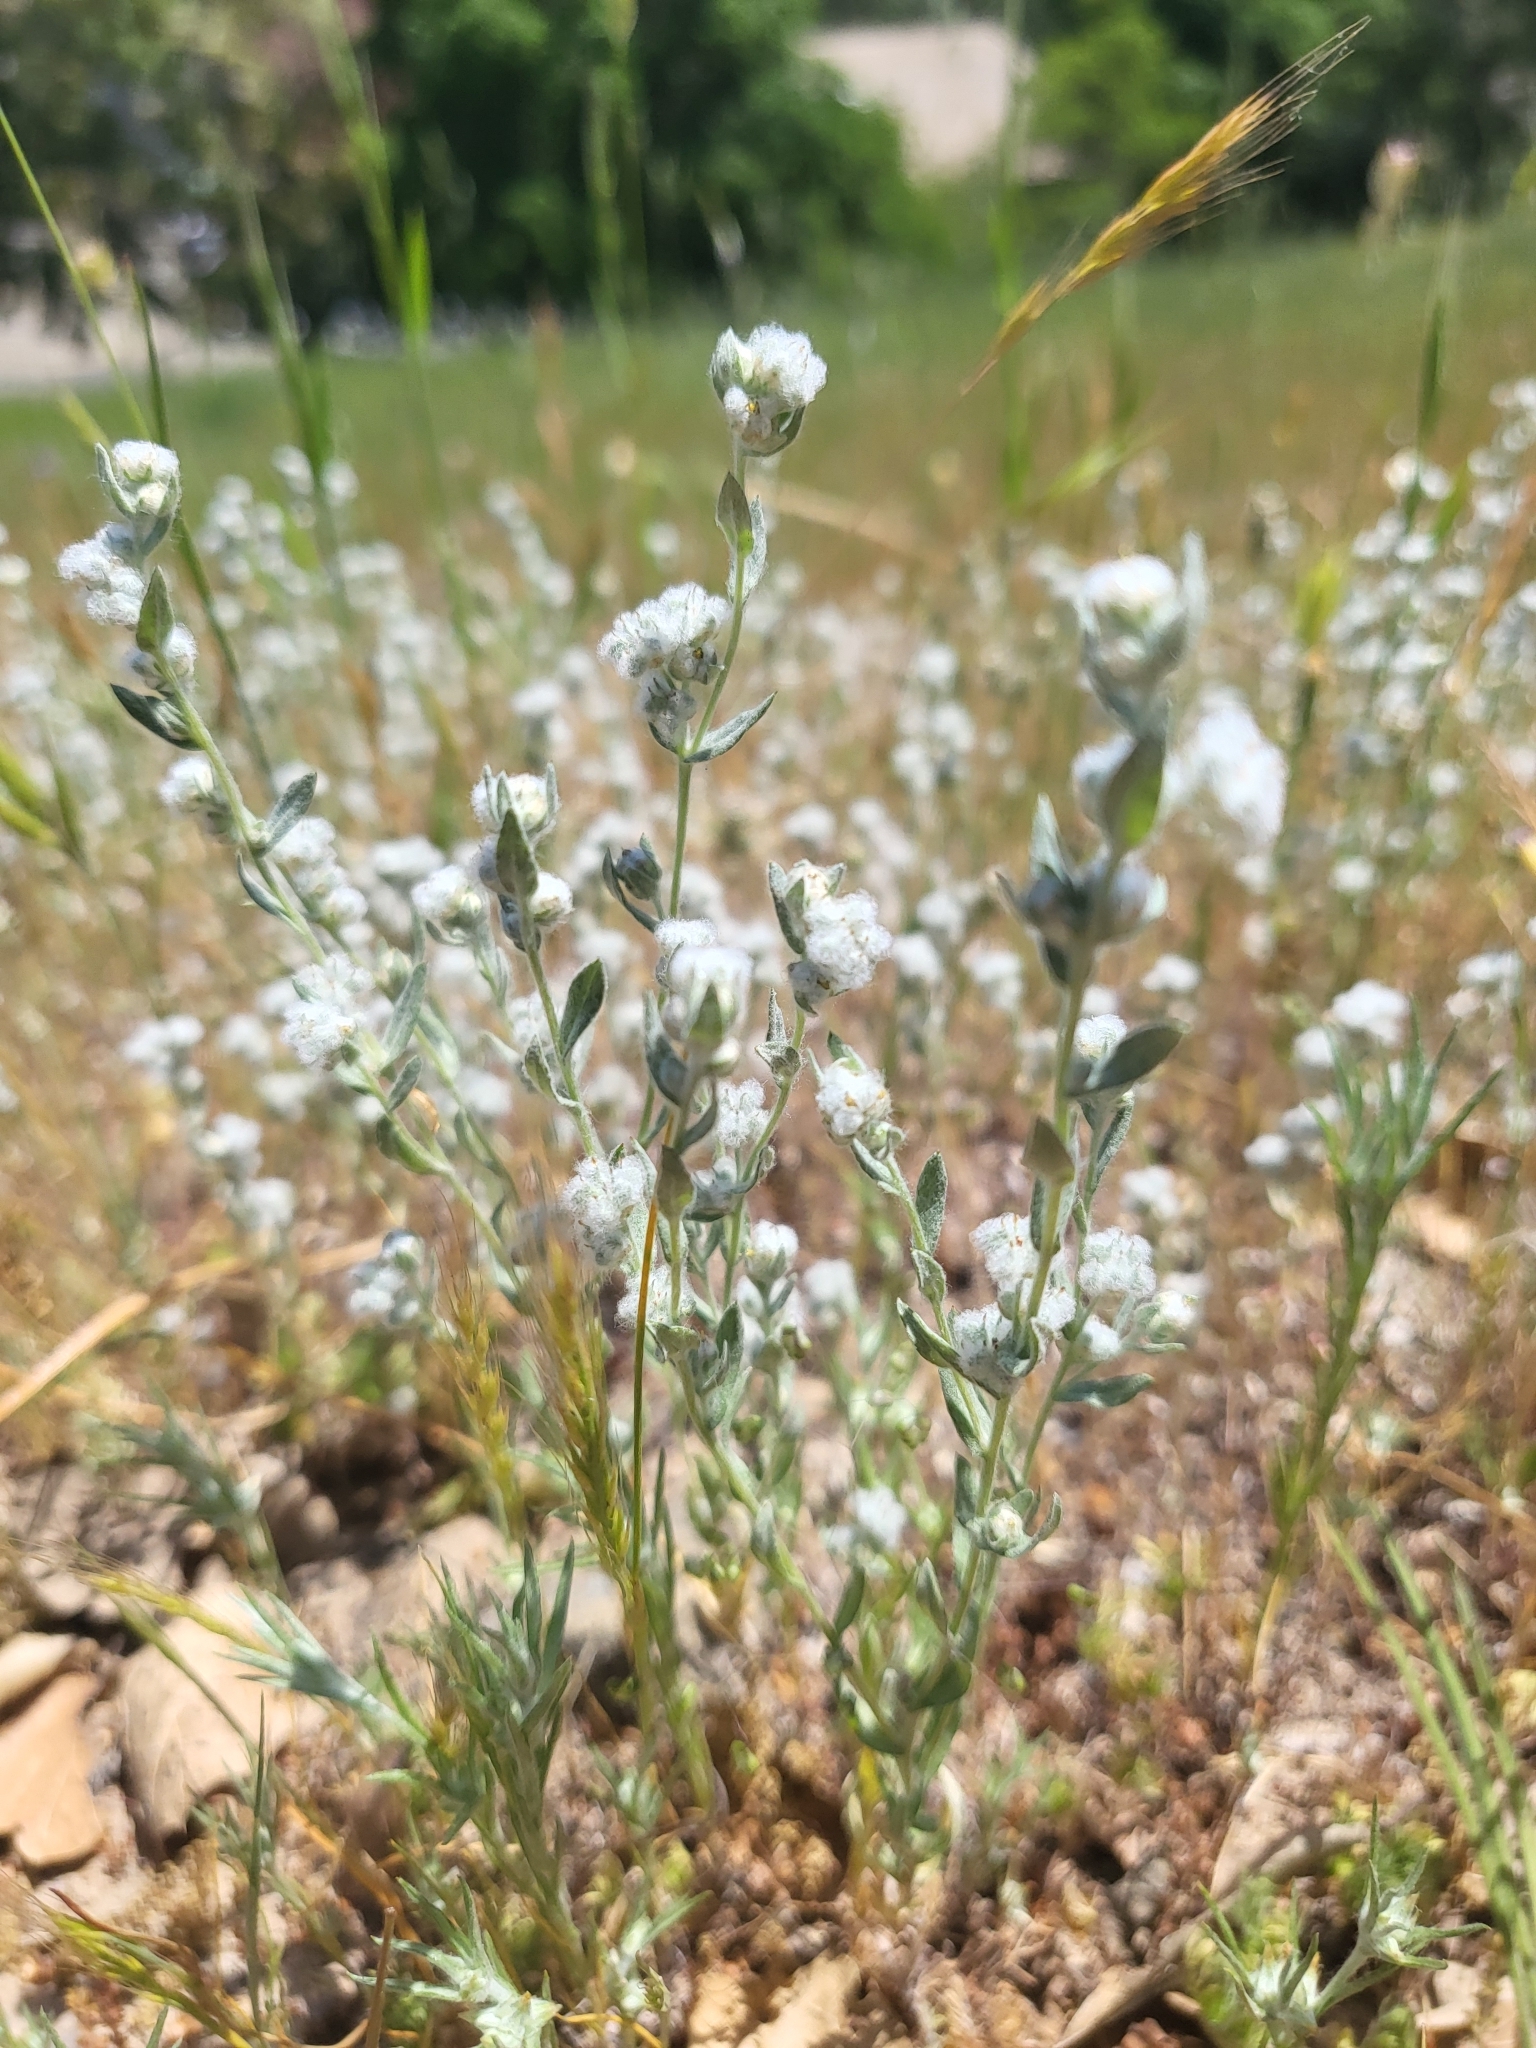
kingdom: Plantae
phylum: Tracheophyta
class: Magnoliopsida
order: Asterales
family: Asteraceae
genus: Bombycilaena
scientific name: Bombycilaena californica
